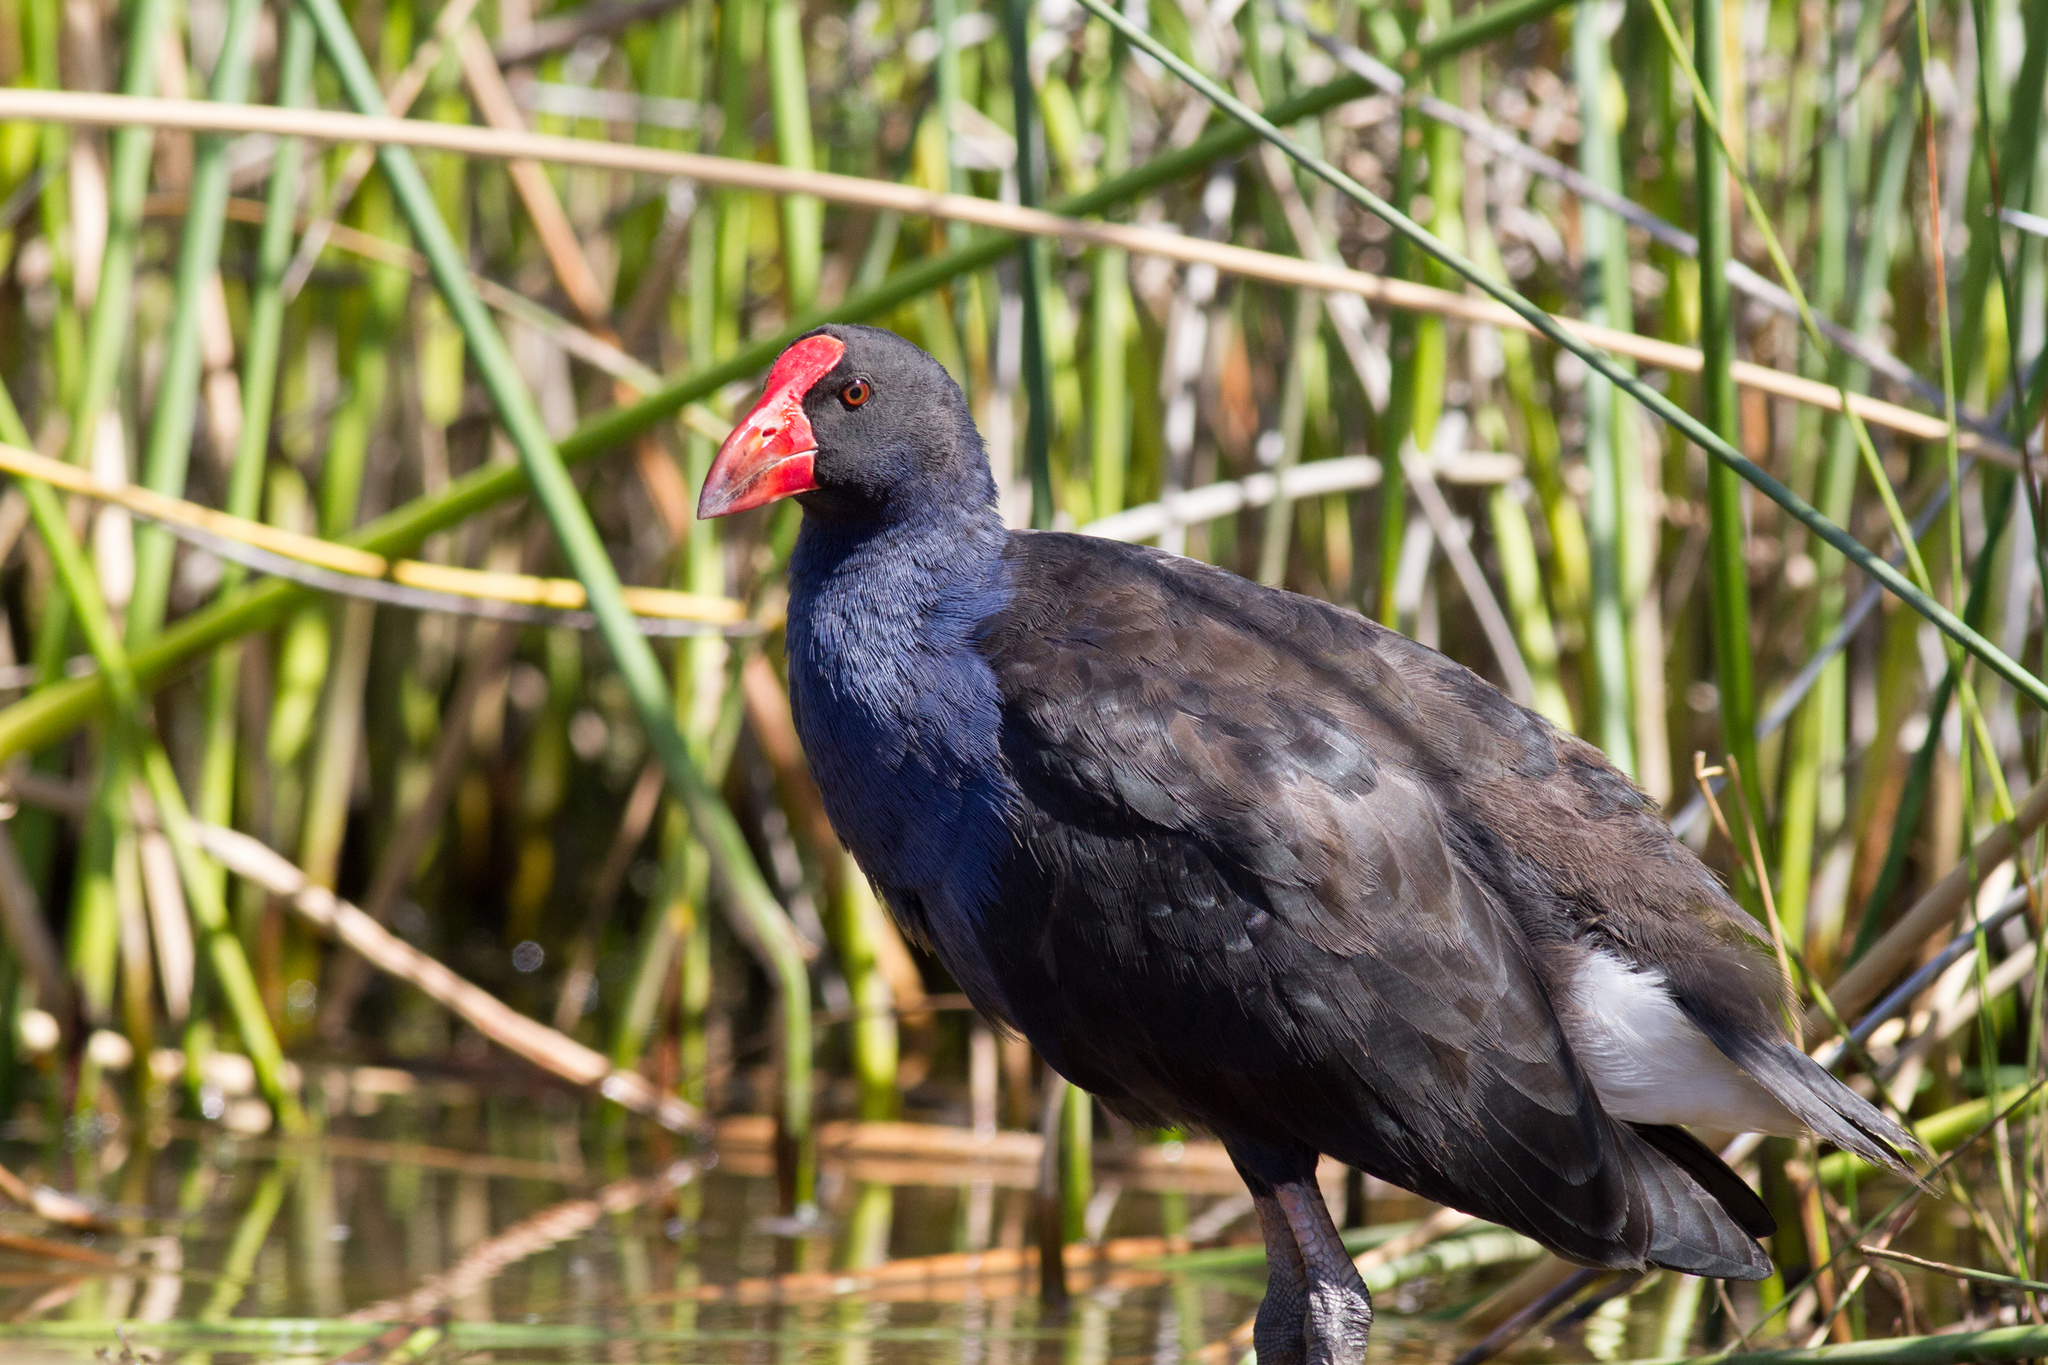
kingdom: Animalia
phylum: Chordata
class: Aves
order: Gruiformes
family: Rallidae
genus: Porphyrio
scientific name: Porphyrio melanotus
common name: Australasian swamphen
